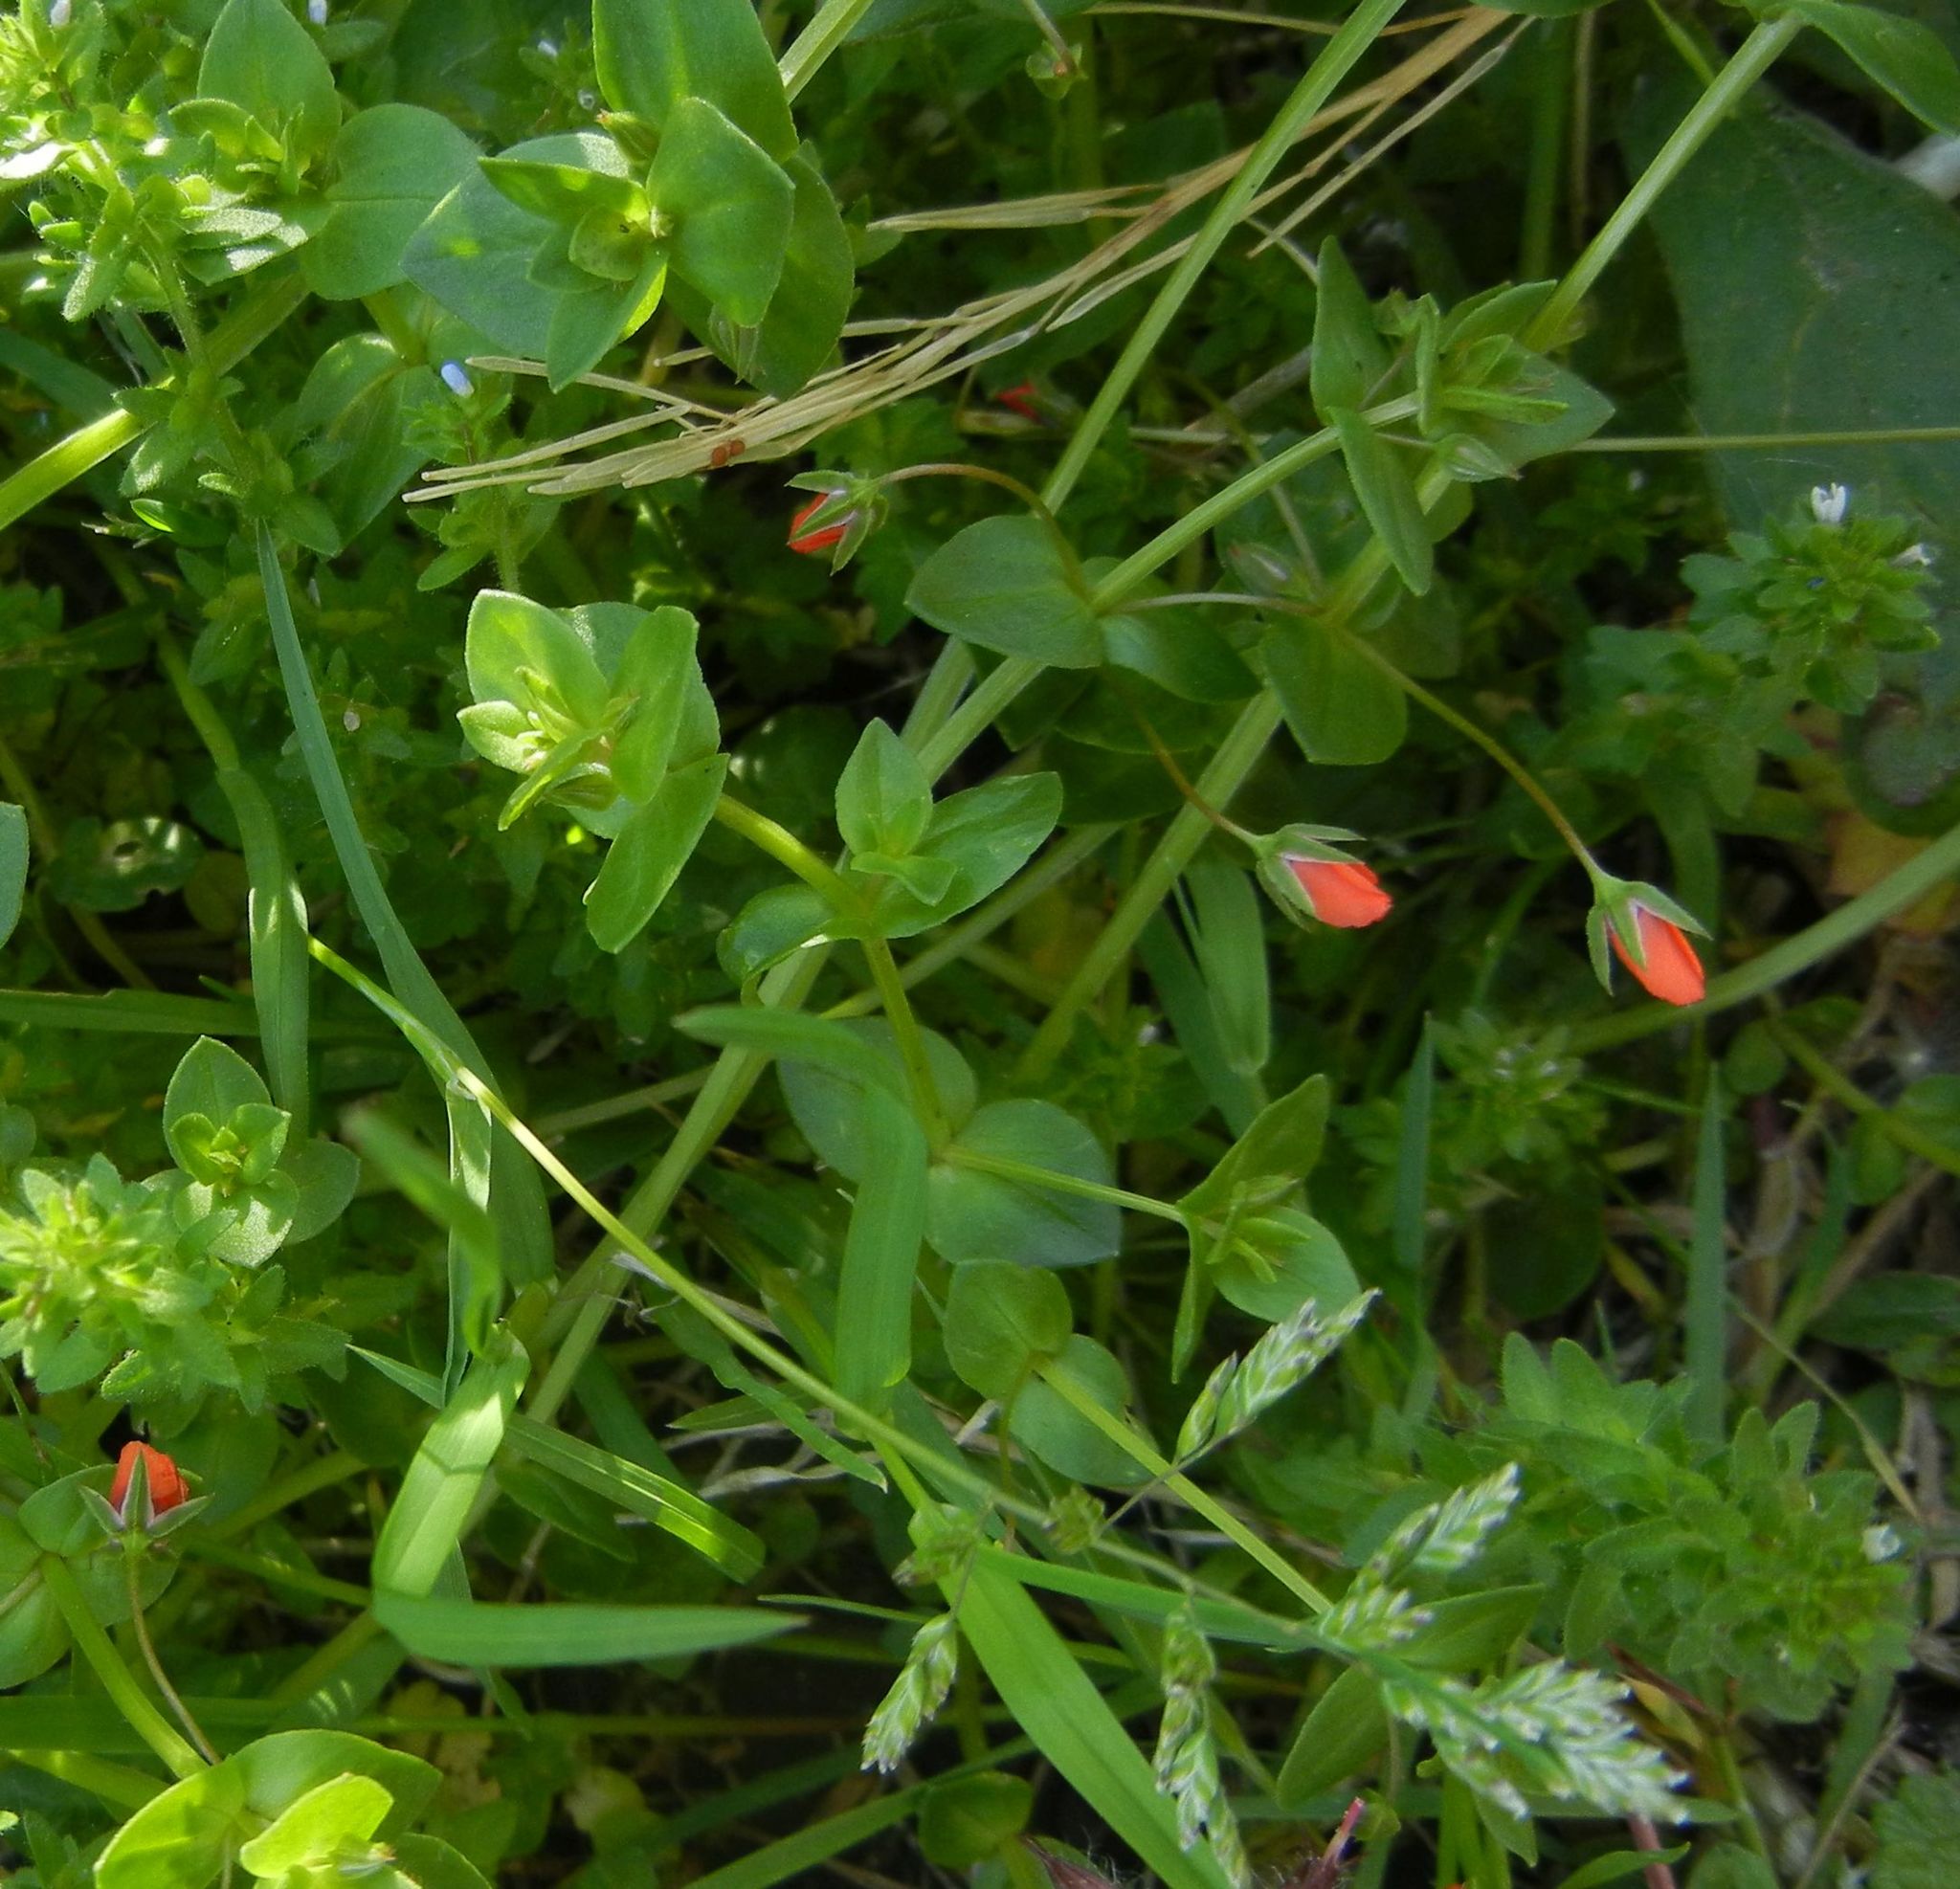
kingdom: Plantae
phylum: Tracheophyta
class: Magnoliopsida
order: Ericales
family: Primulaceae
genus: Lysimachia
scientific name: Lysimachia arvensis
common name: Scarlet pimpernel
